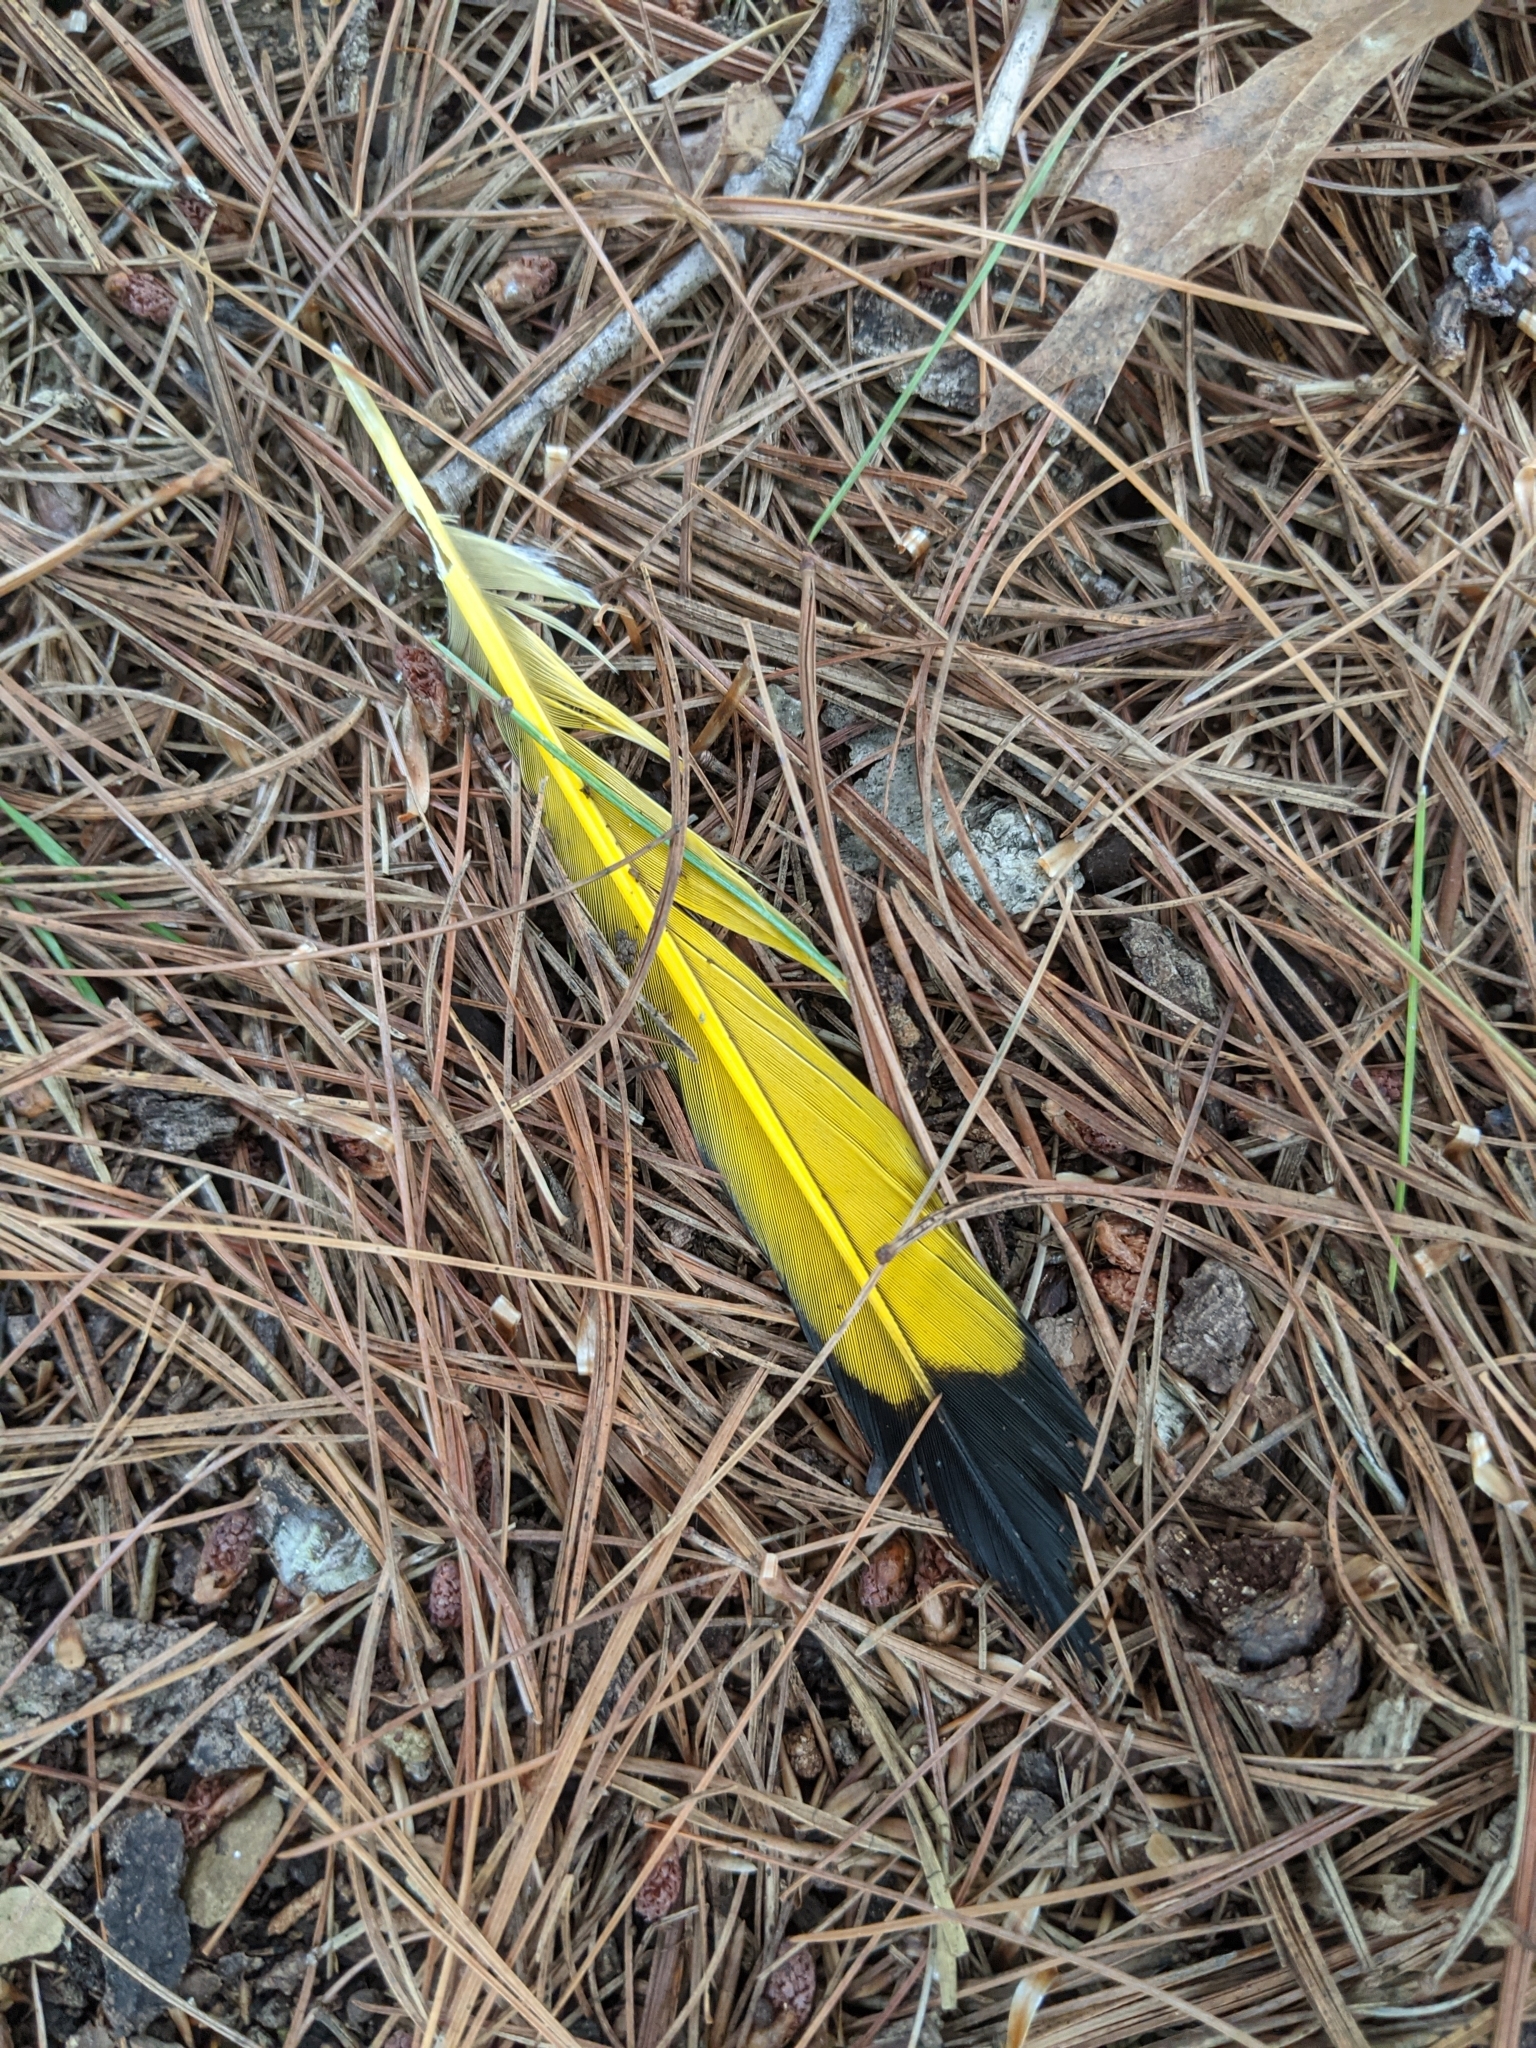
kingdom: Animalia
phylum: Chordata
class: Aves
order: Piciformes
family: Picidae
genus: Colaptes
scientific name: Colaptes auratus
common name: Northern flicker
